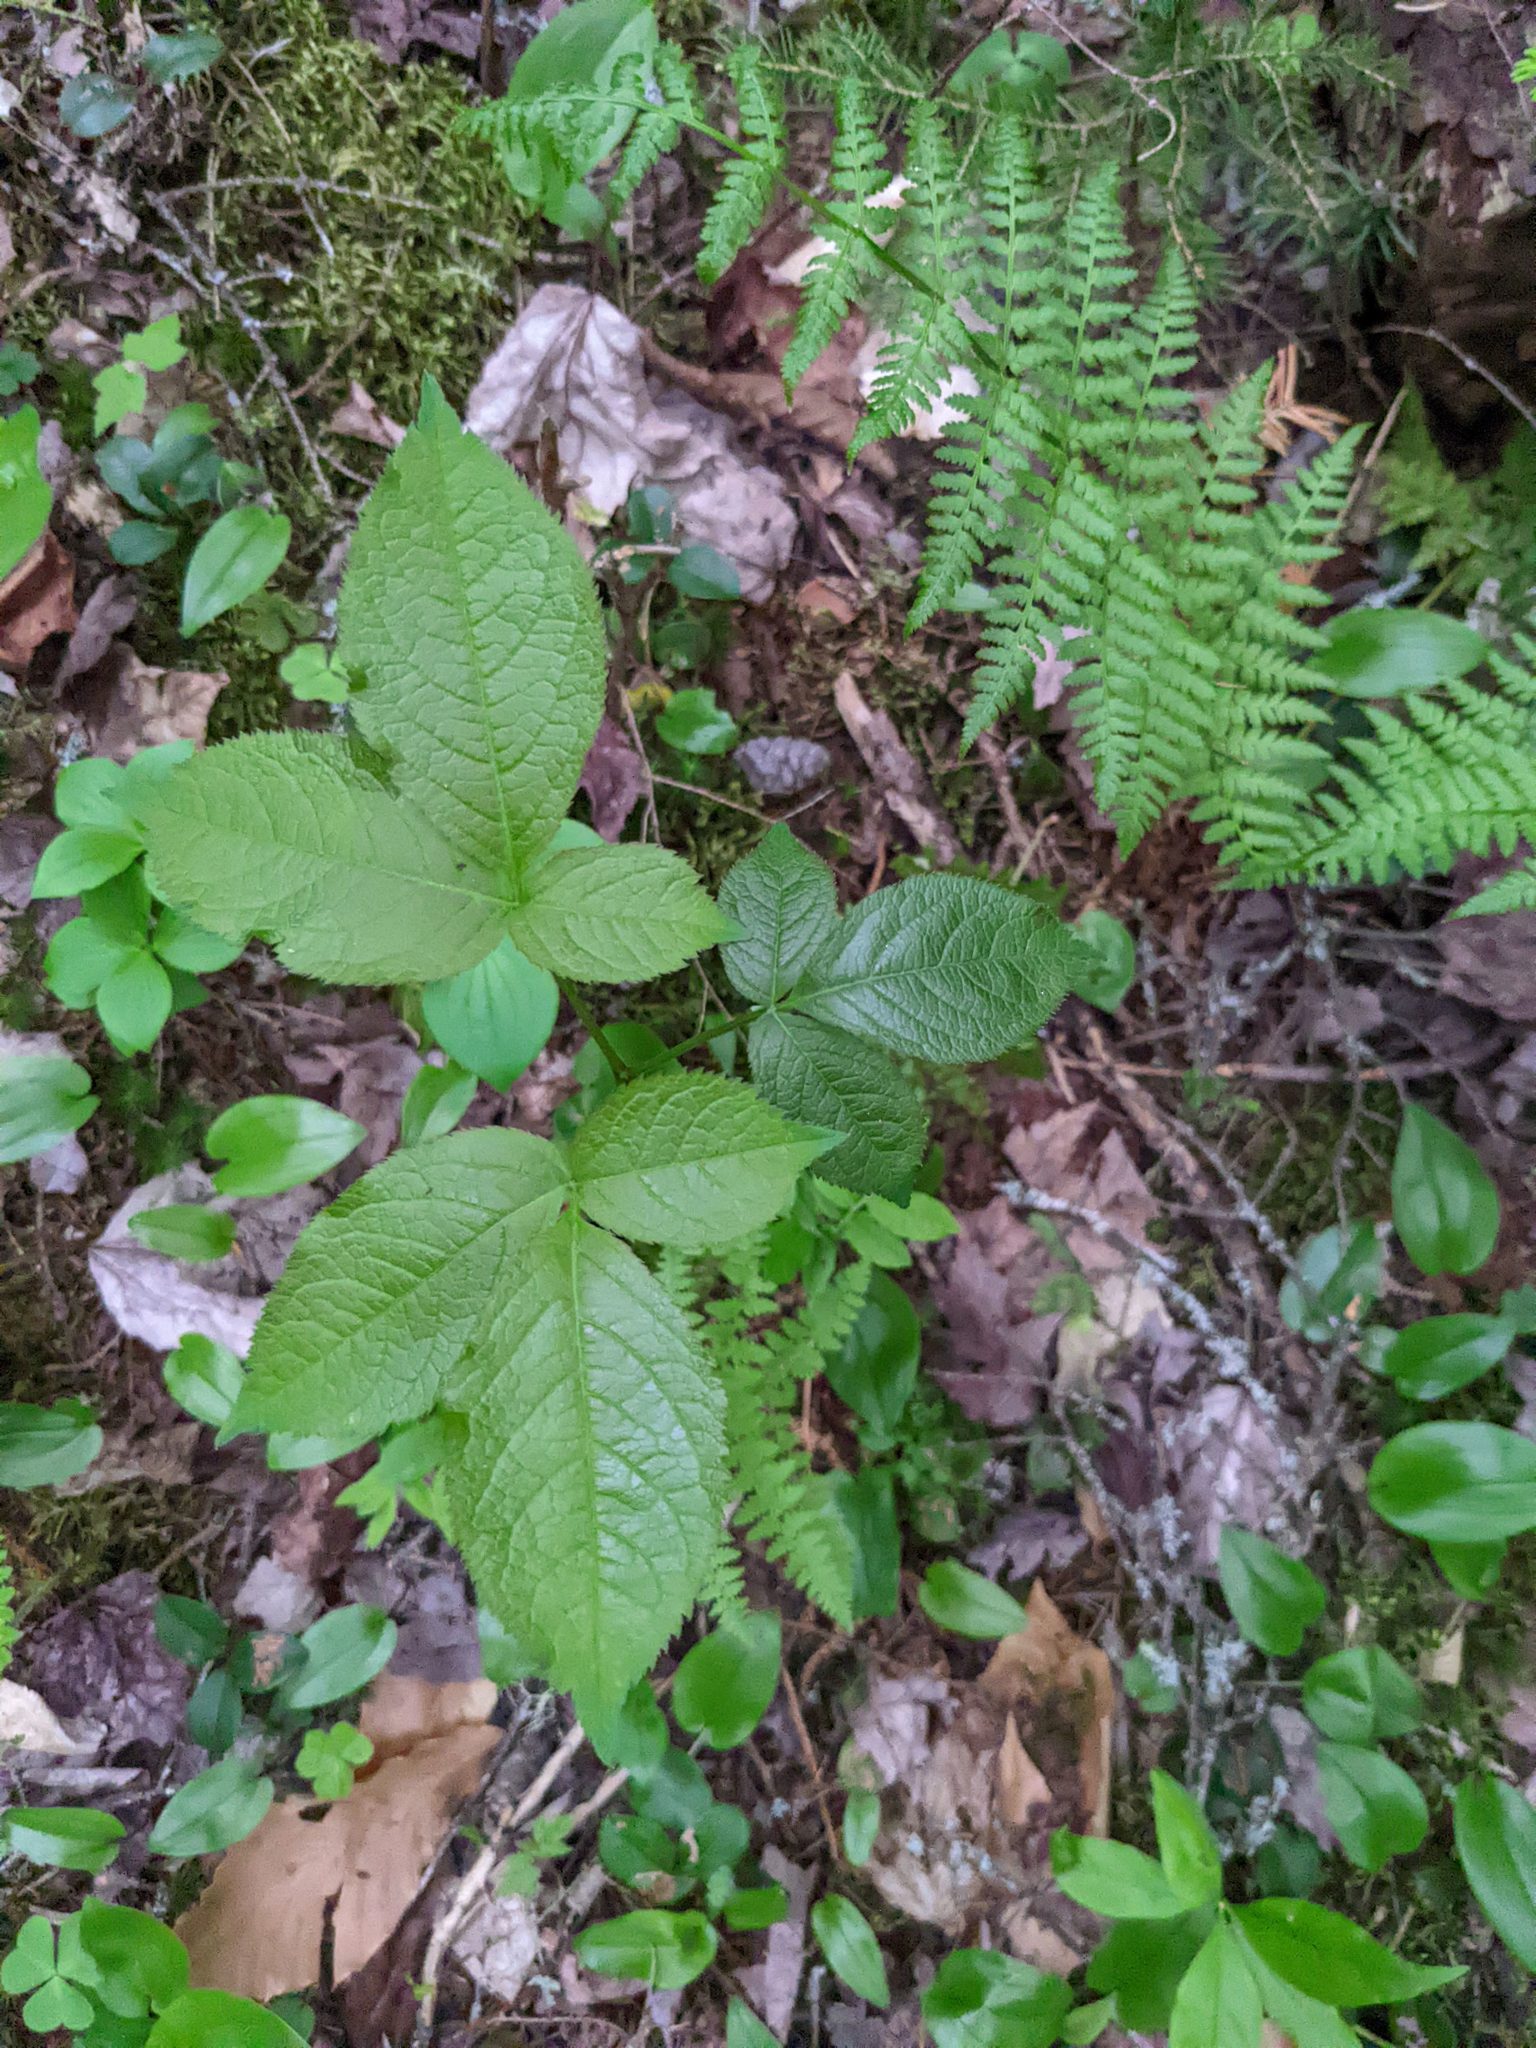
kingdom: Plantae
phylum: Tracheophyta
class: Magnoliopsida
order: Apiales
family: Araliaceae
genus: Aralia
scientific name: Aralia nudicaulis
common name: Wild sarsaparilla
